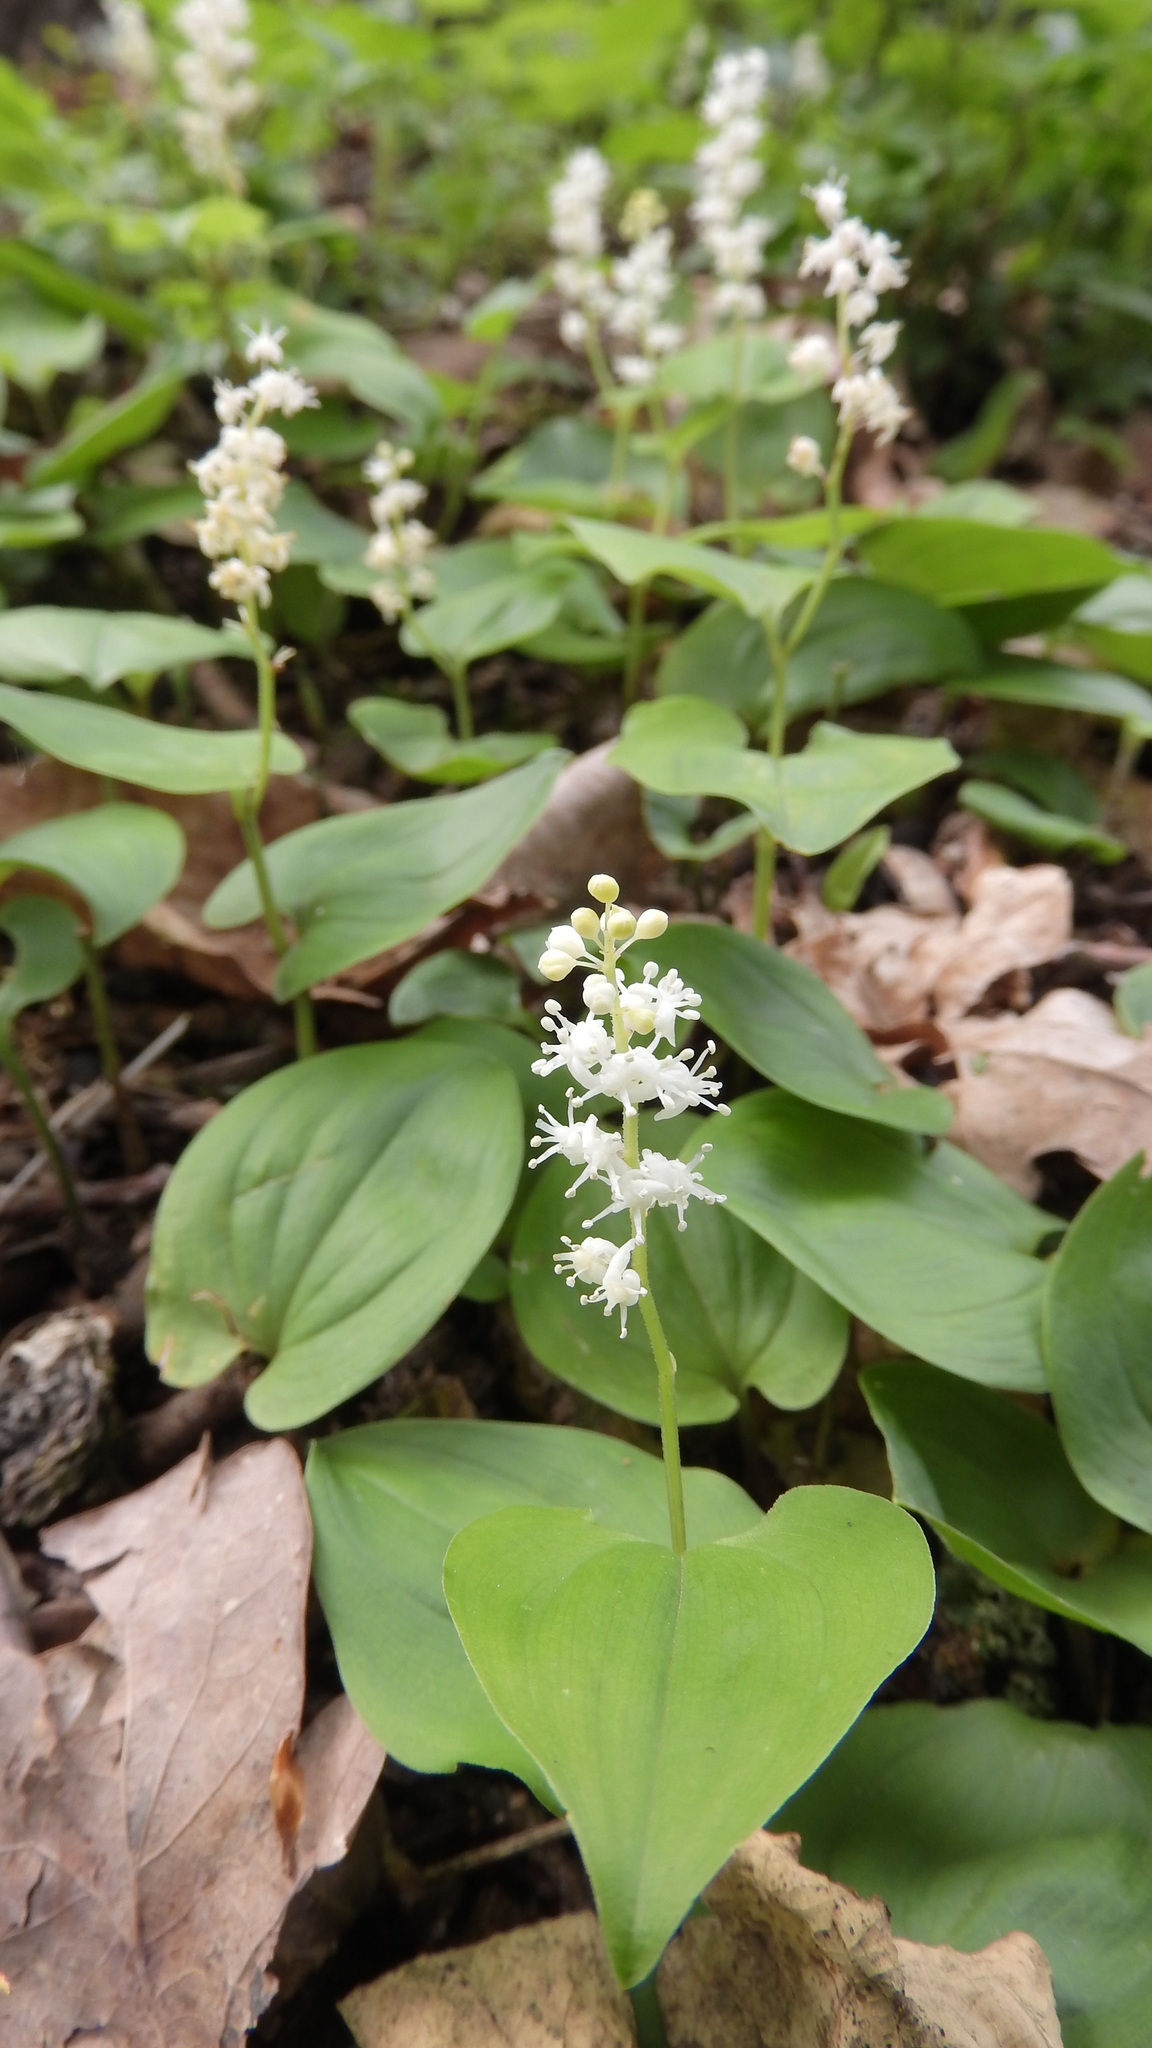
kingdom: Plantae
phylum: Tracheophyta
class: Liliopsida
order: Asparagales
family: Asparagaceae
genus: Maianthemum
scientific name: Maianthemum bifolium
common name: May lily
